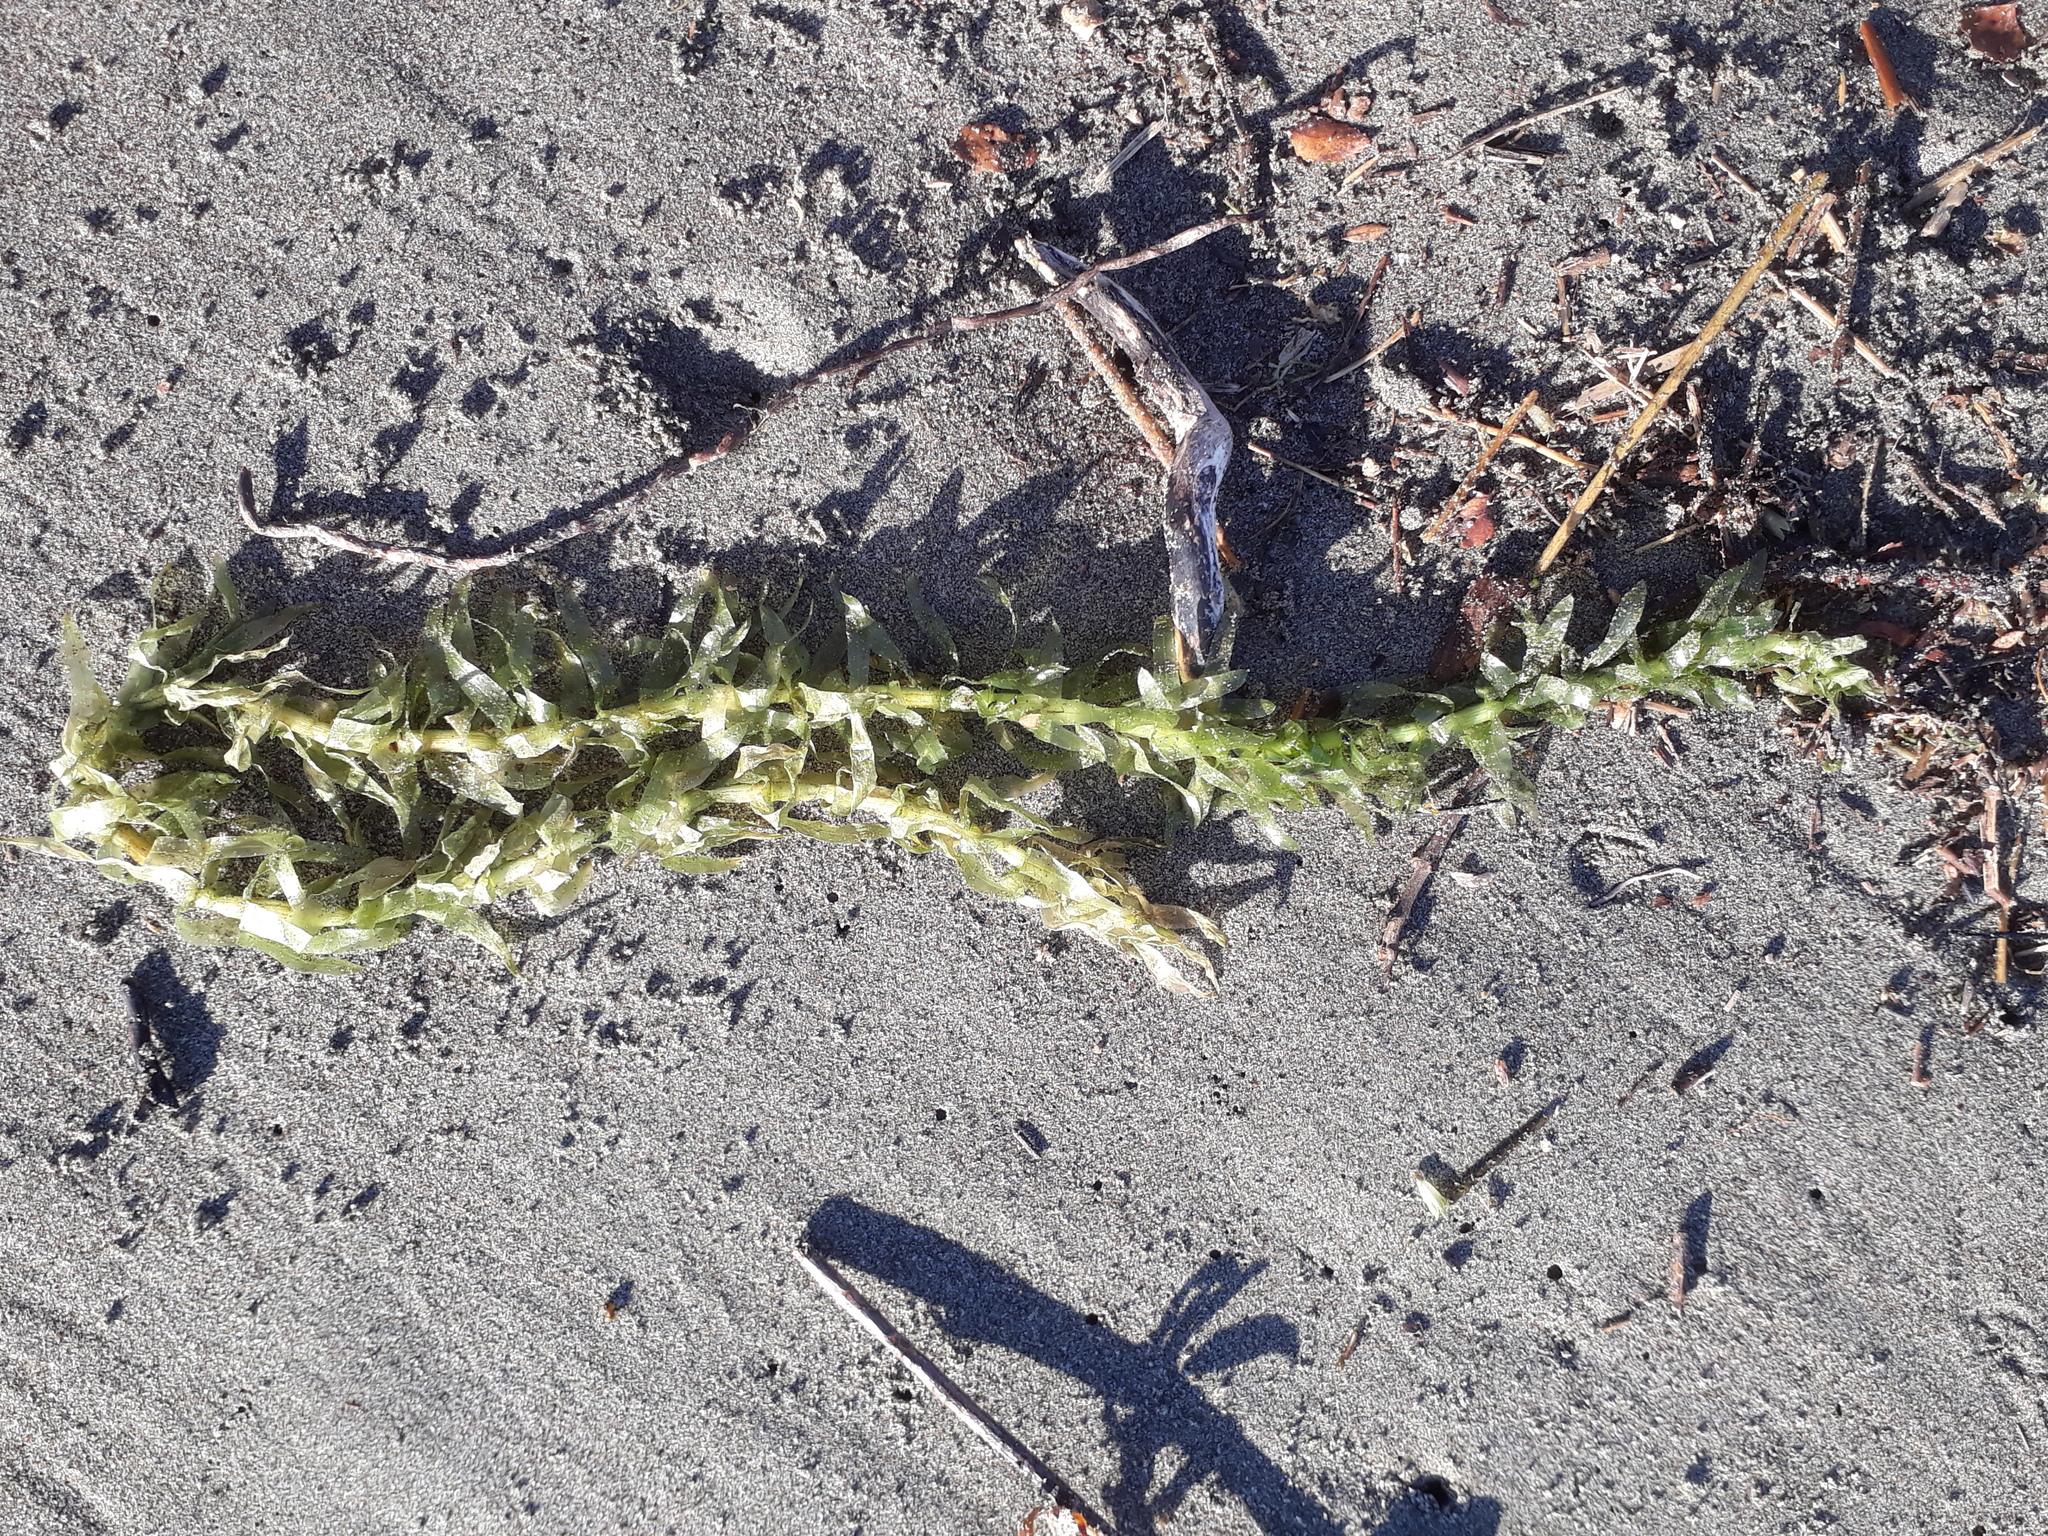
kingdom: Plantae
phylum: Tracheophyta
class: Liliopsida
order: Alismatales
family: Hydrocharitaceae
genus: Elodea
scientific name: Elodea densa
